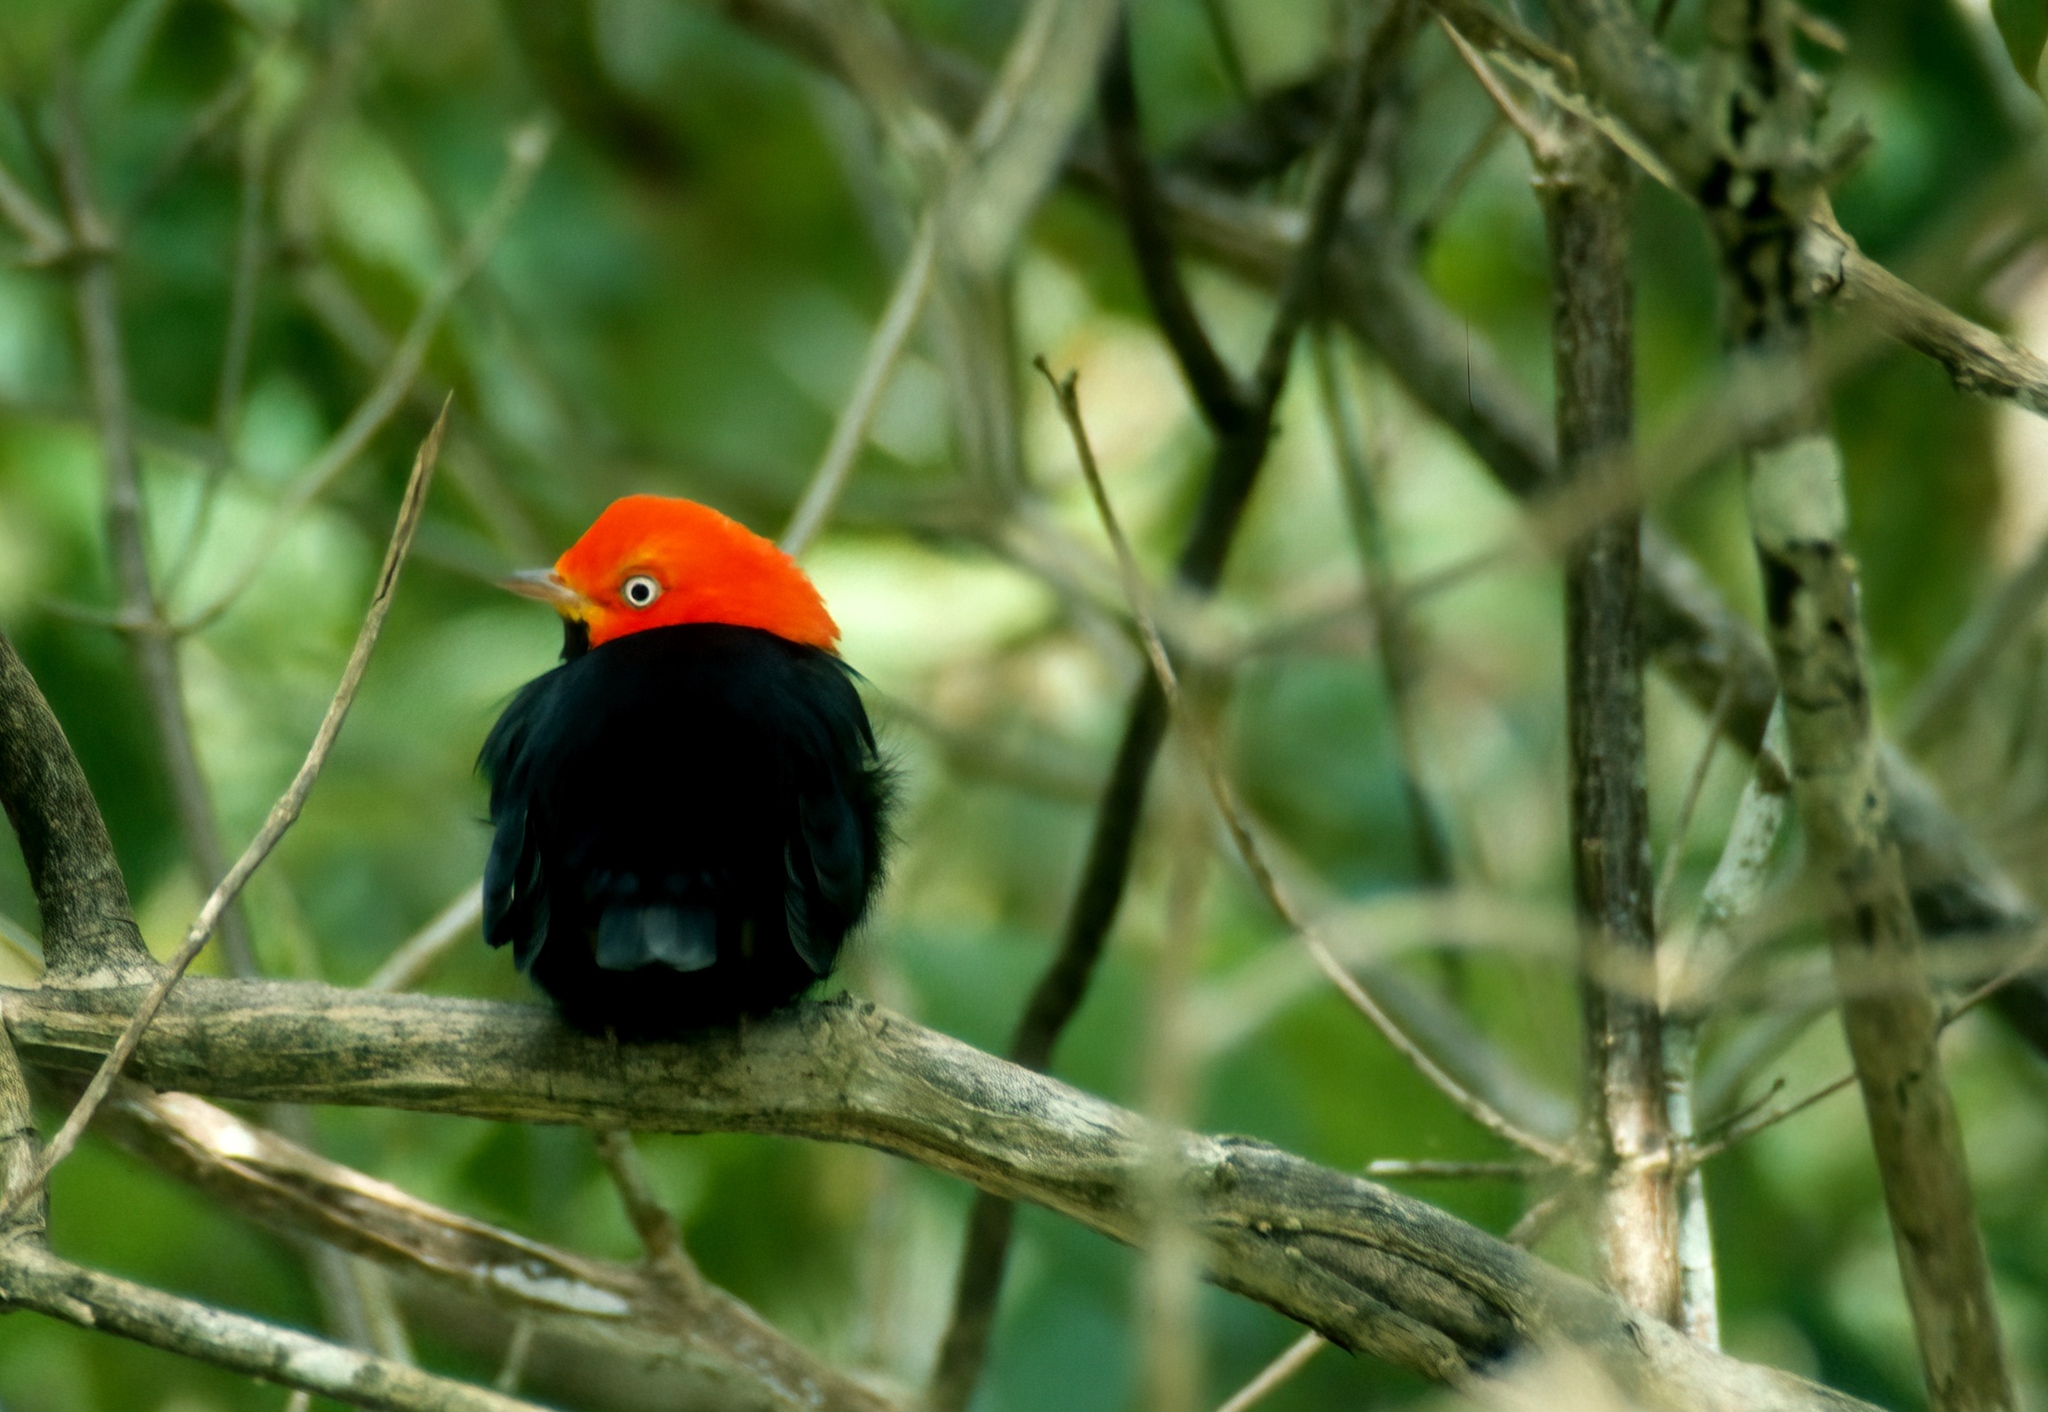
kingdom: Animalia
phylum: Chordata
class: Aves
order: Passeriformes
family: Pipridae
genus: Pipra
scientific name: Pipra mentalis
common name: Red-capped manakin
